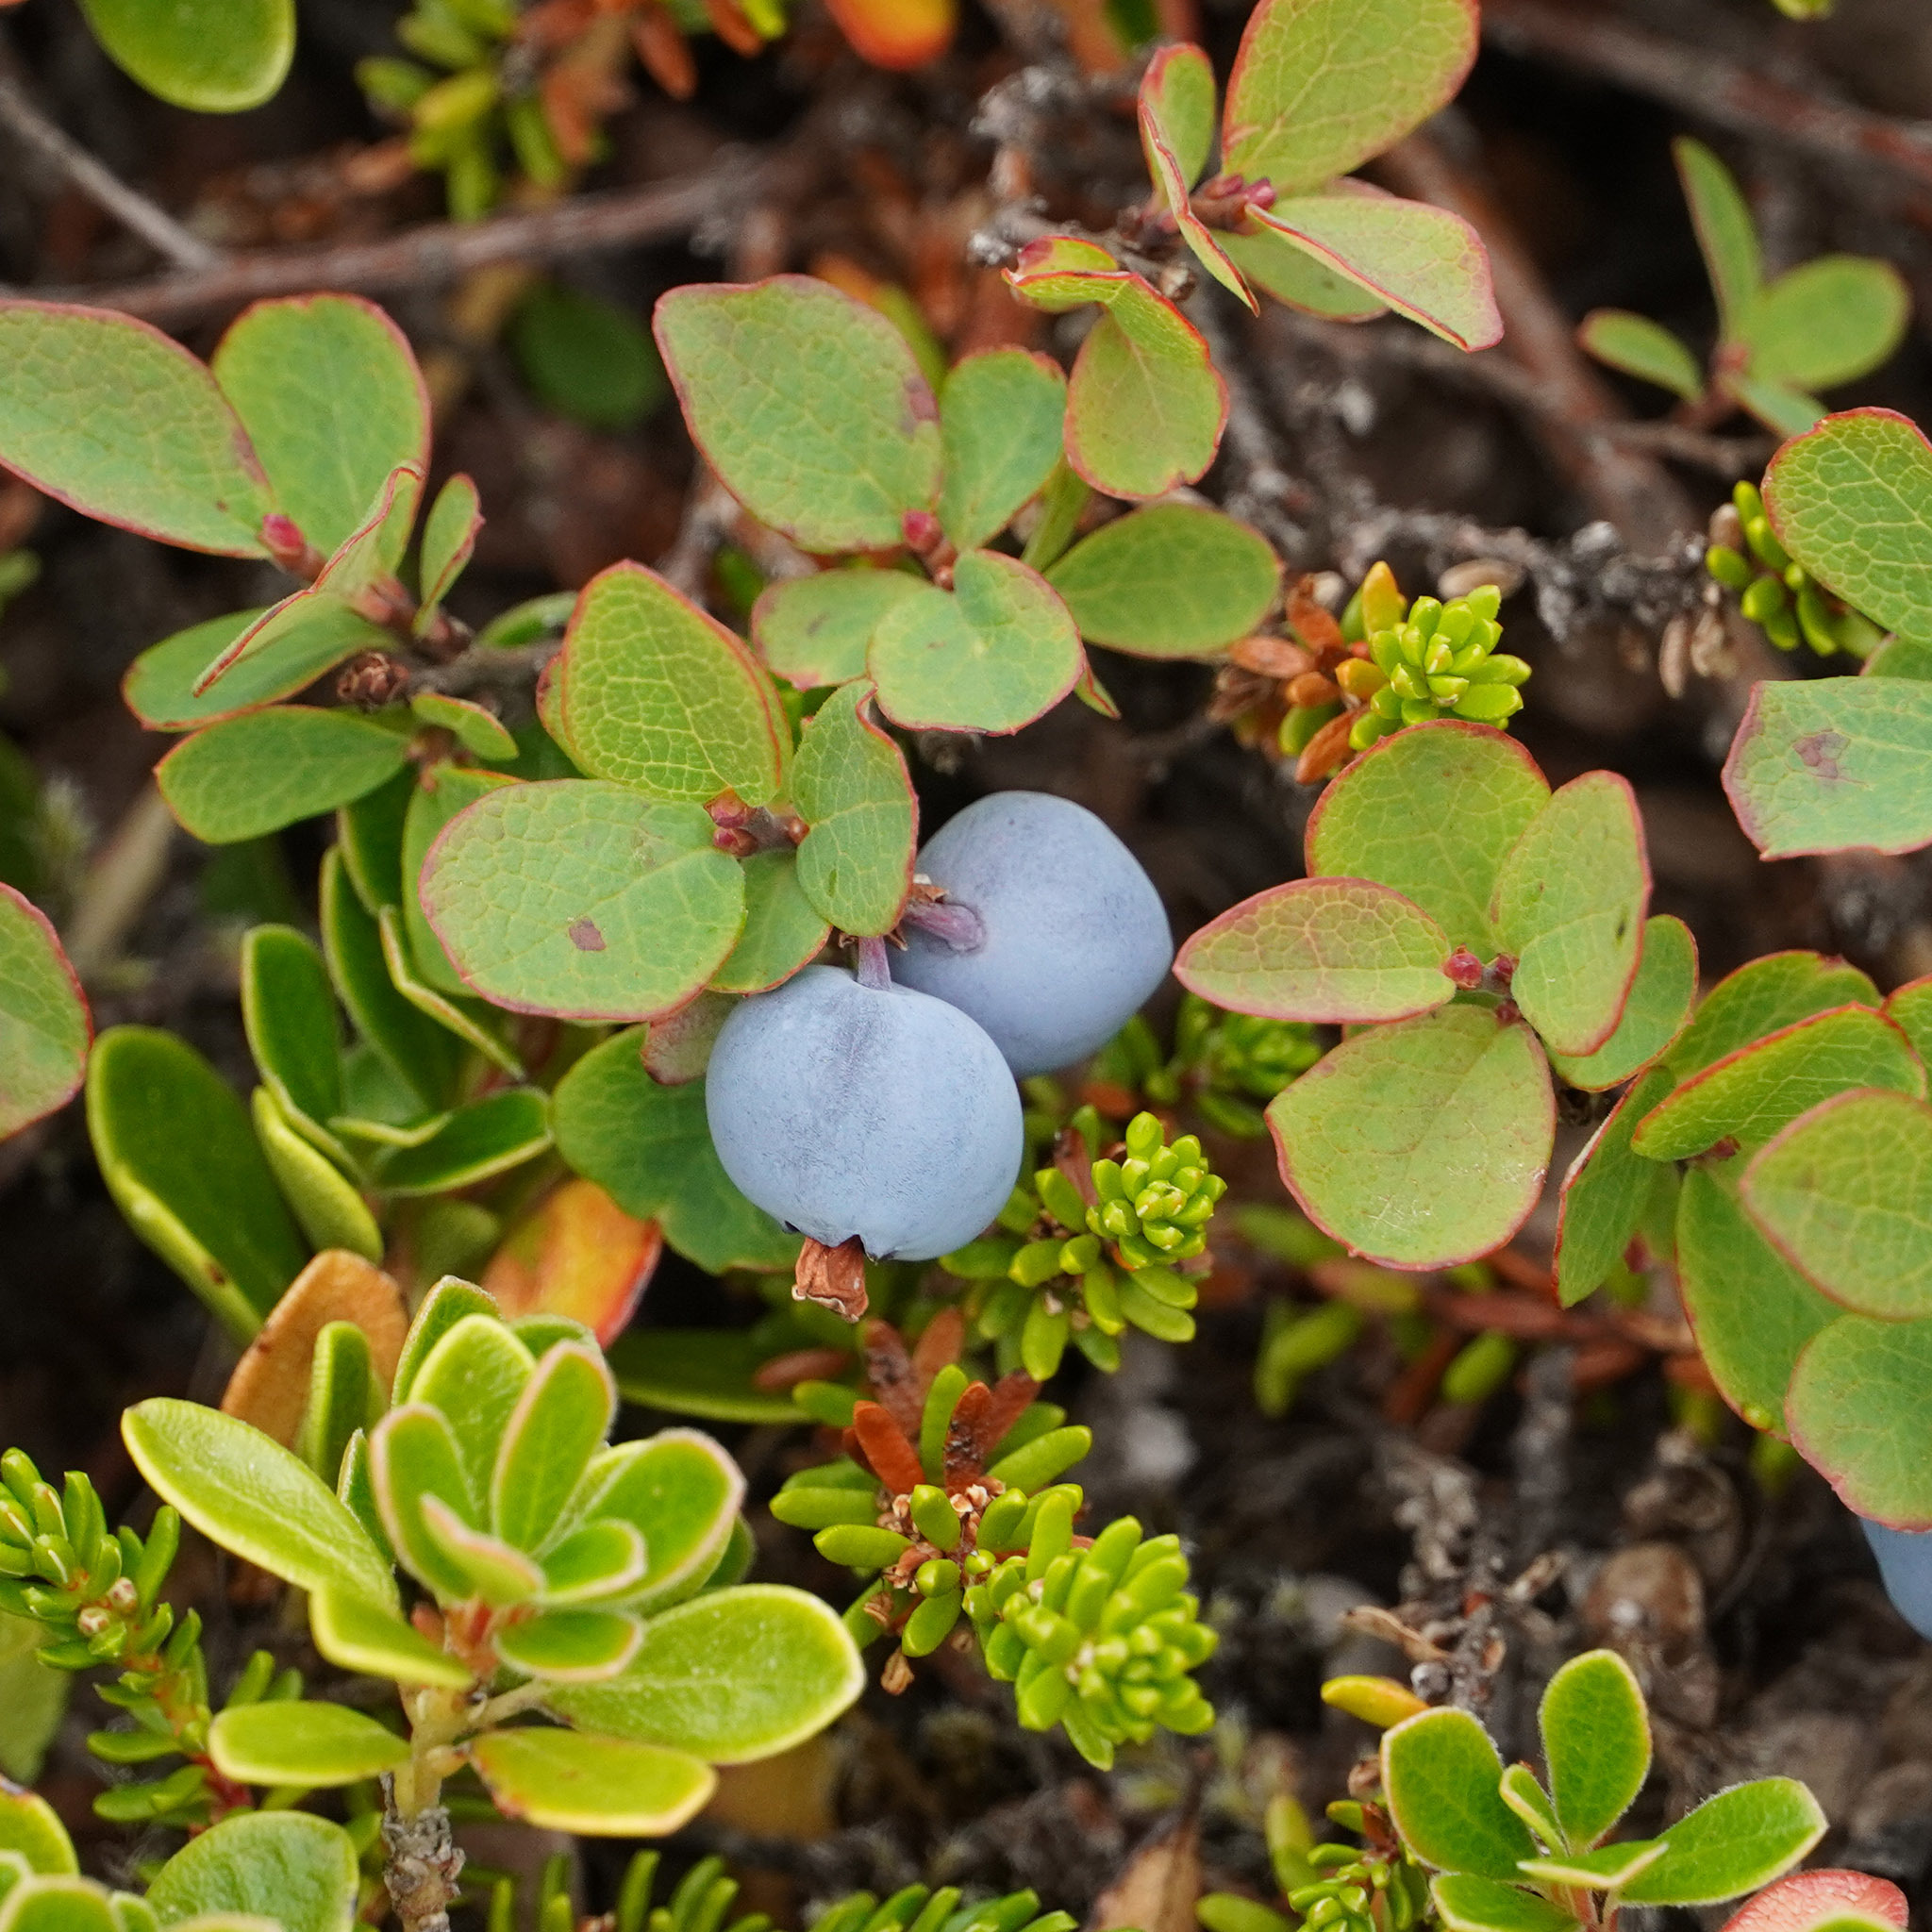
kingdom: Plantae
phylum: Tracheophyta
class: Magnoliopsida
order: Ericales
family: Ericaceae
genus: Vaccinium
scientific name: Vaccinium uliginosum
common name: Bog bilberry
